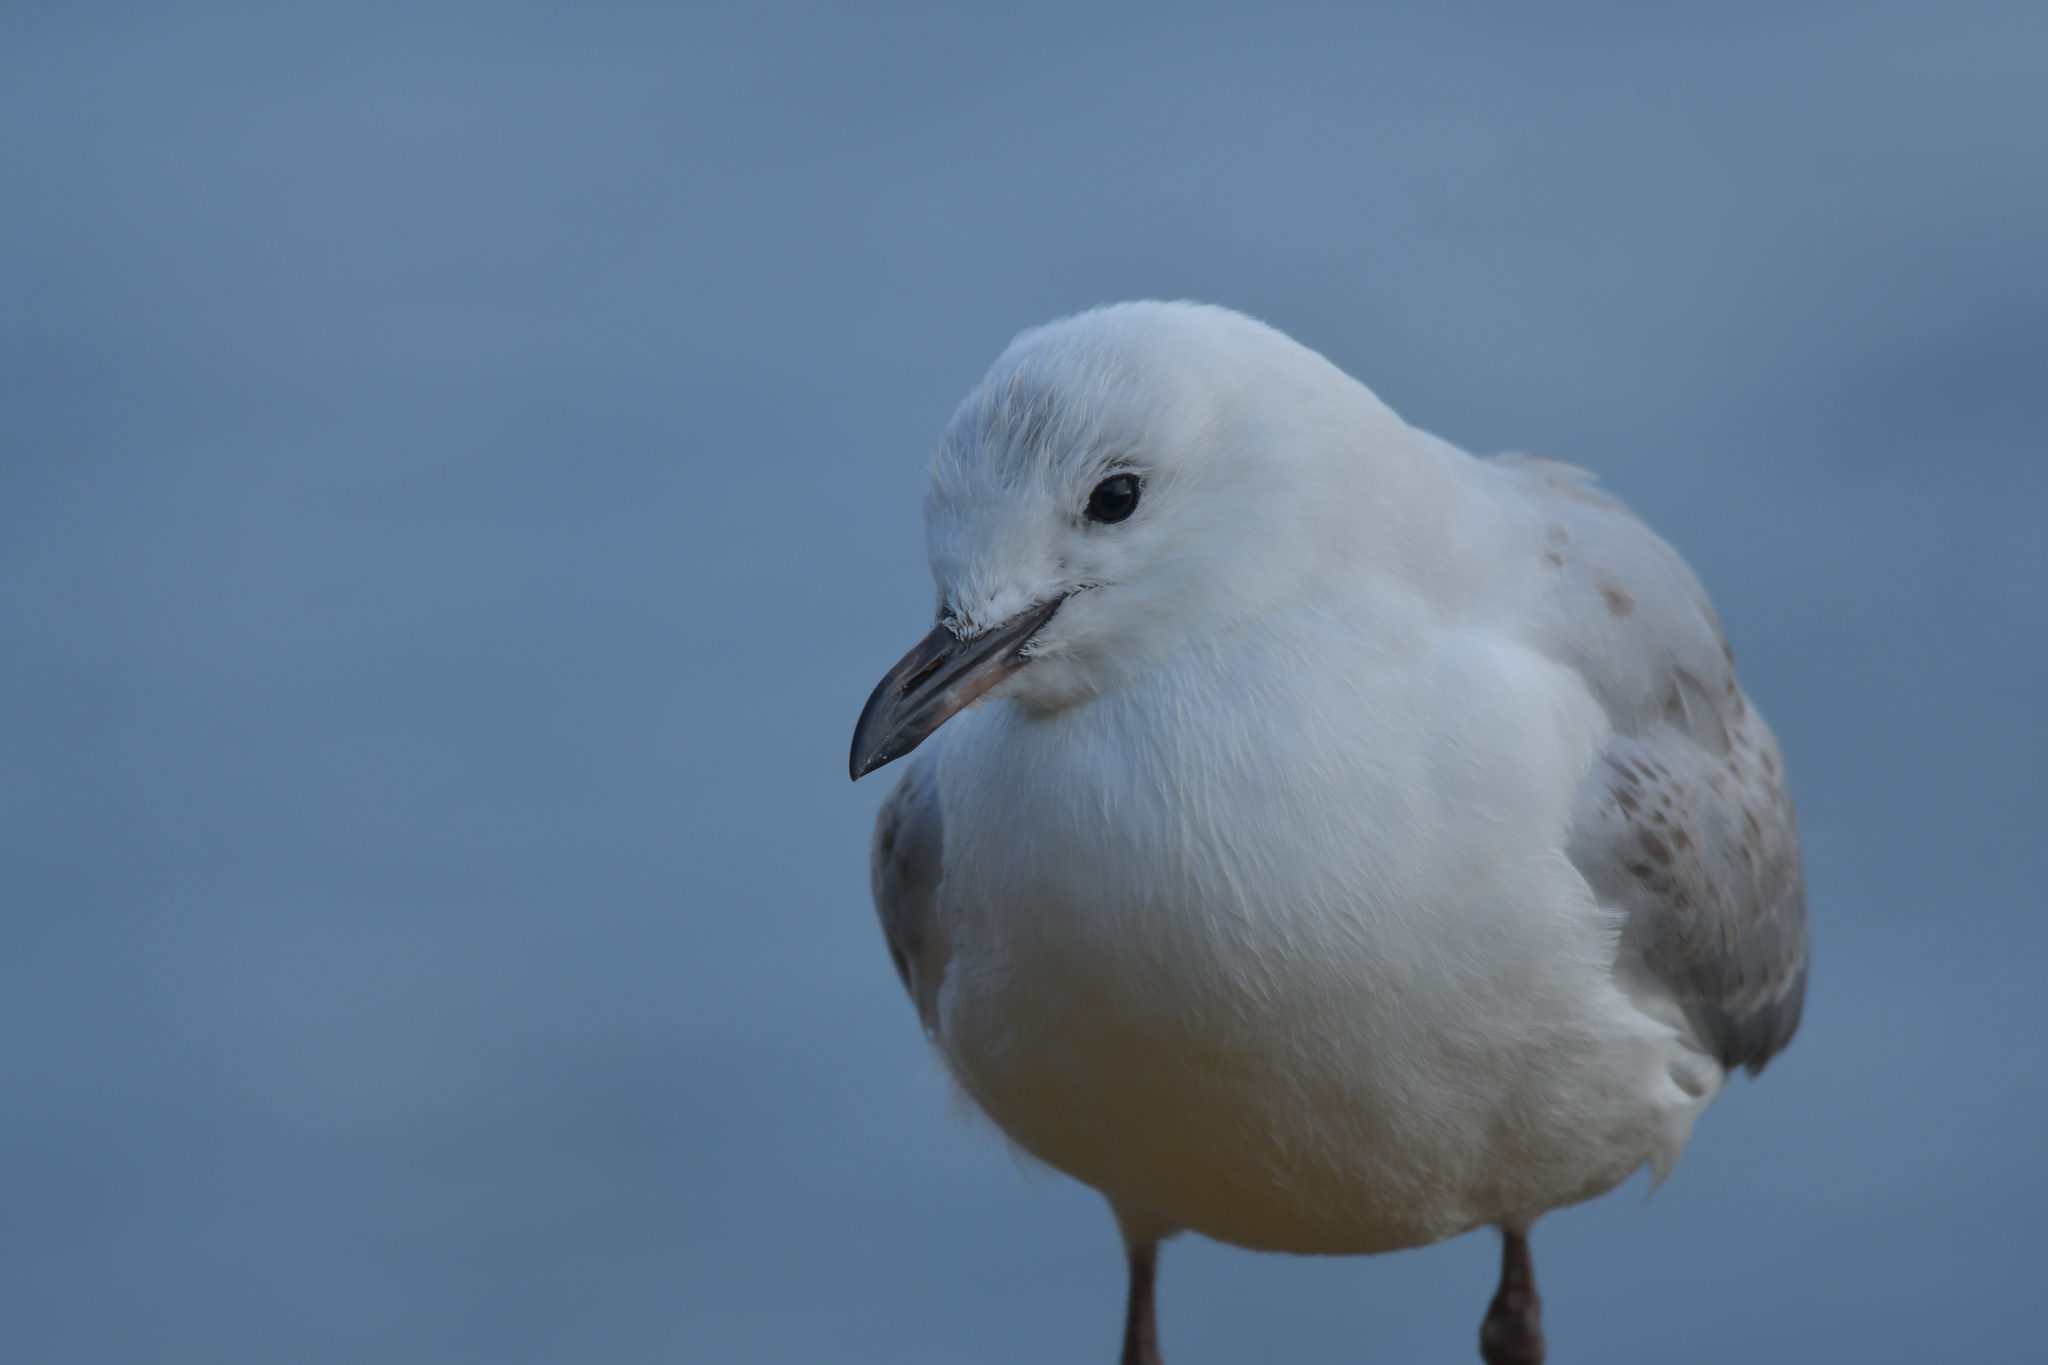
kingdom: Animalia
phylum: Chordata
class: Aves
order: Charadriiformes
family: Laridae
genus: Chroicocephalus
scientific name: Chroicocephalus novaehollandiae
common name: Silver gull
